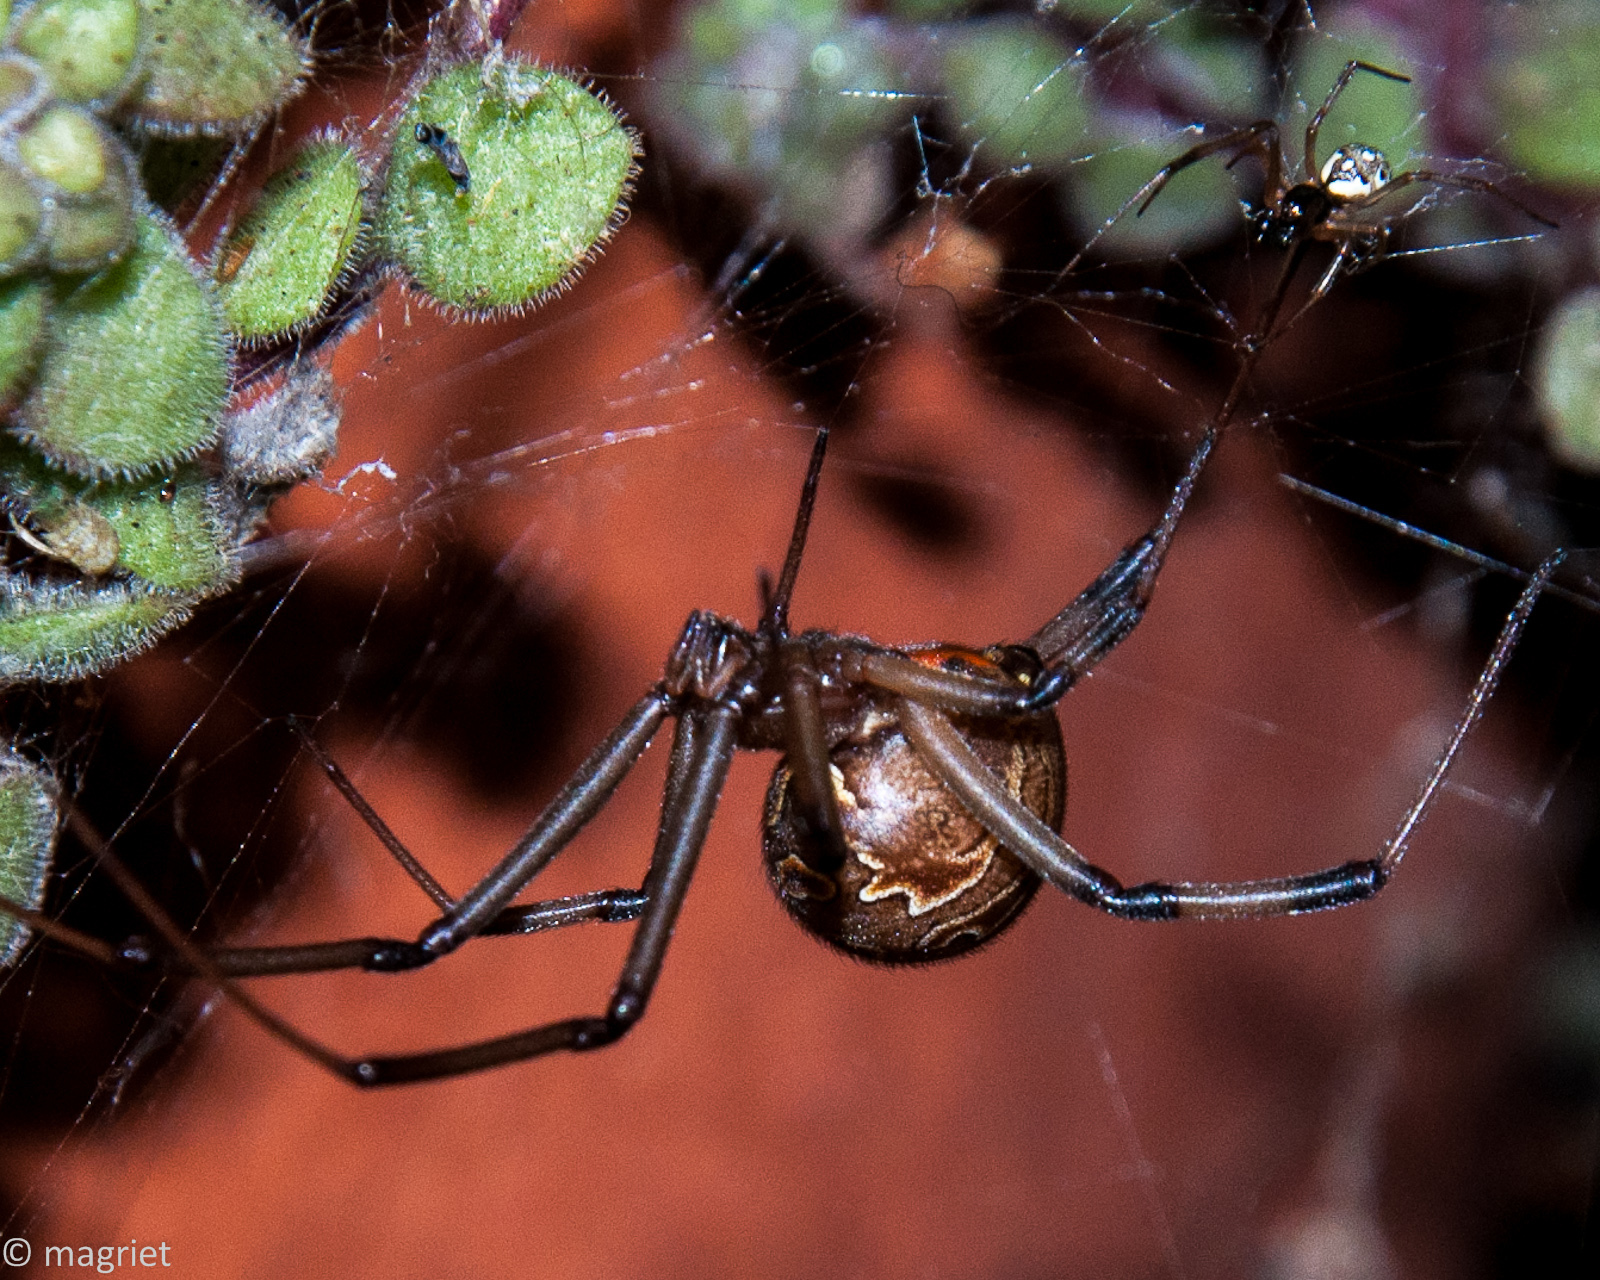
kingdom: Animalia
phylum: Arthropoda
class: Arachnida
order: Araneae
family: Theridiidae
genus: Latrodectus
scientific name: Latrodectus geometricus
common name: Brown widow spider
